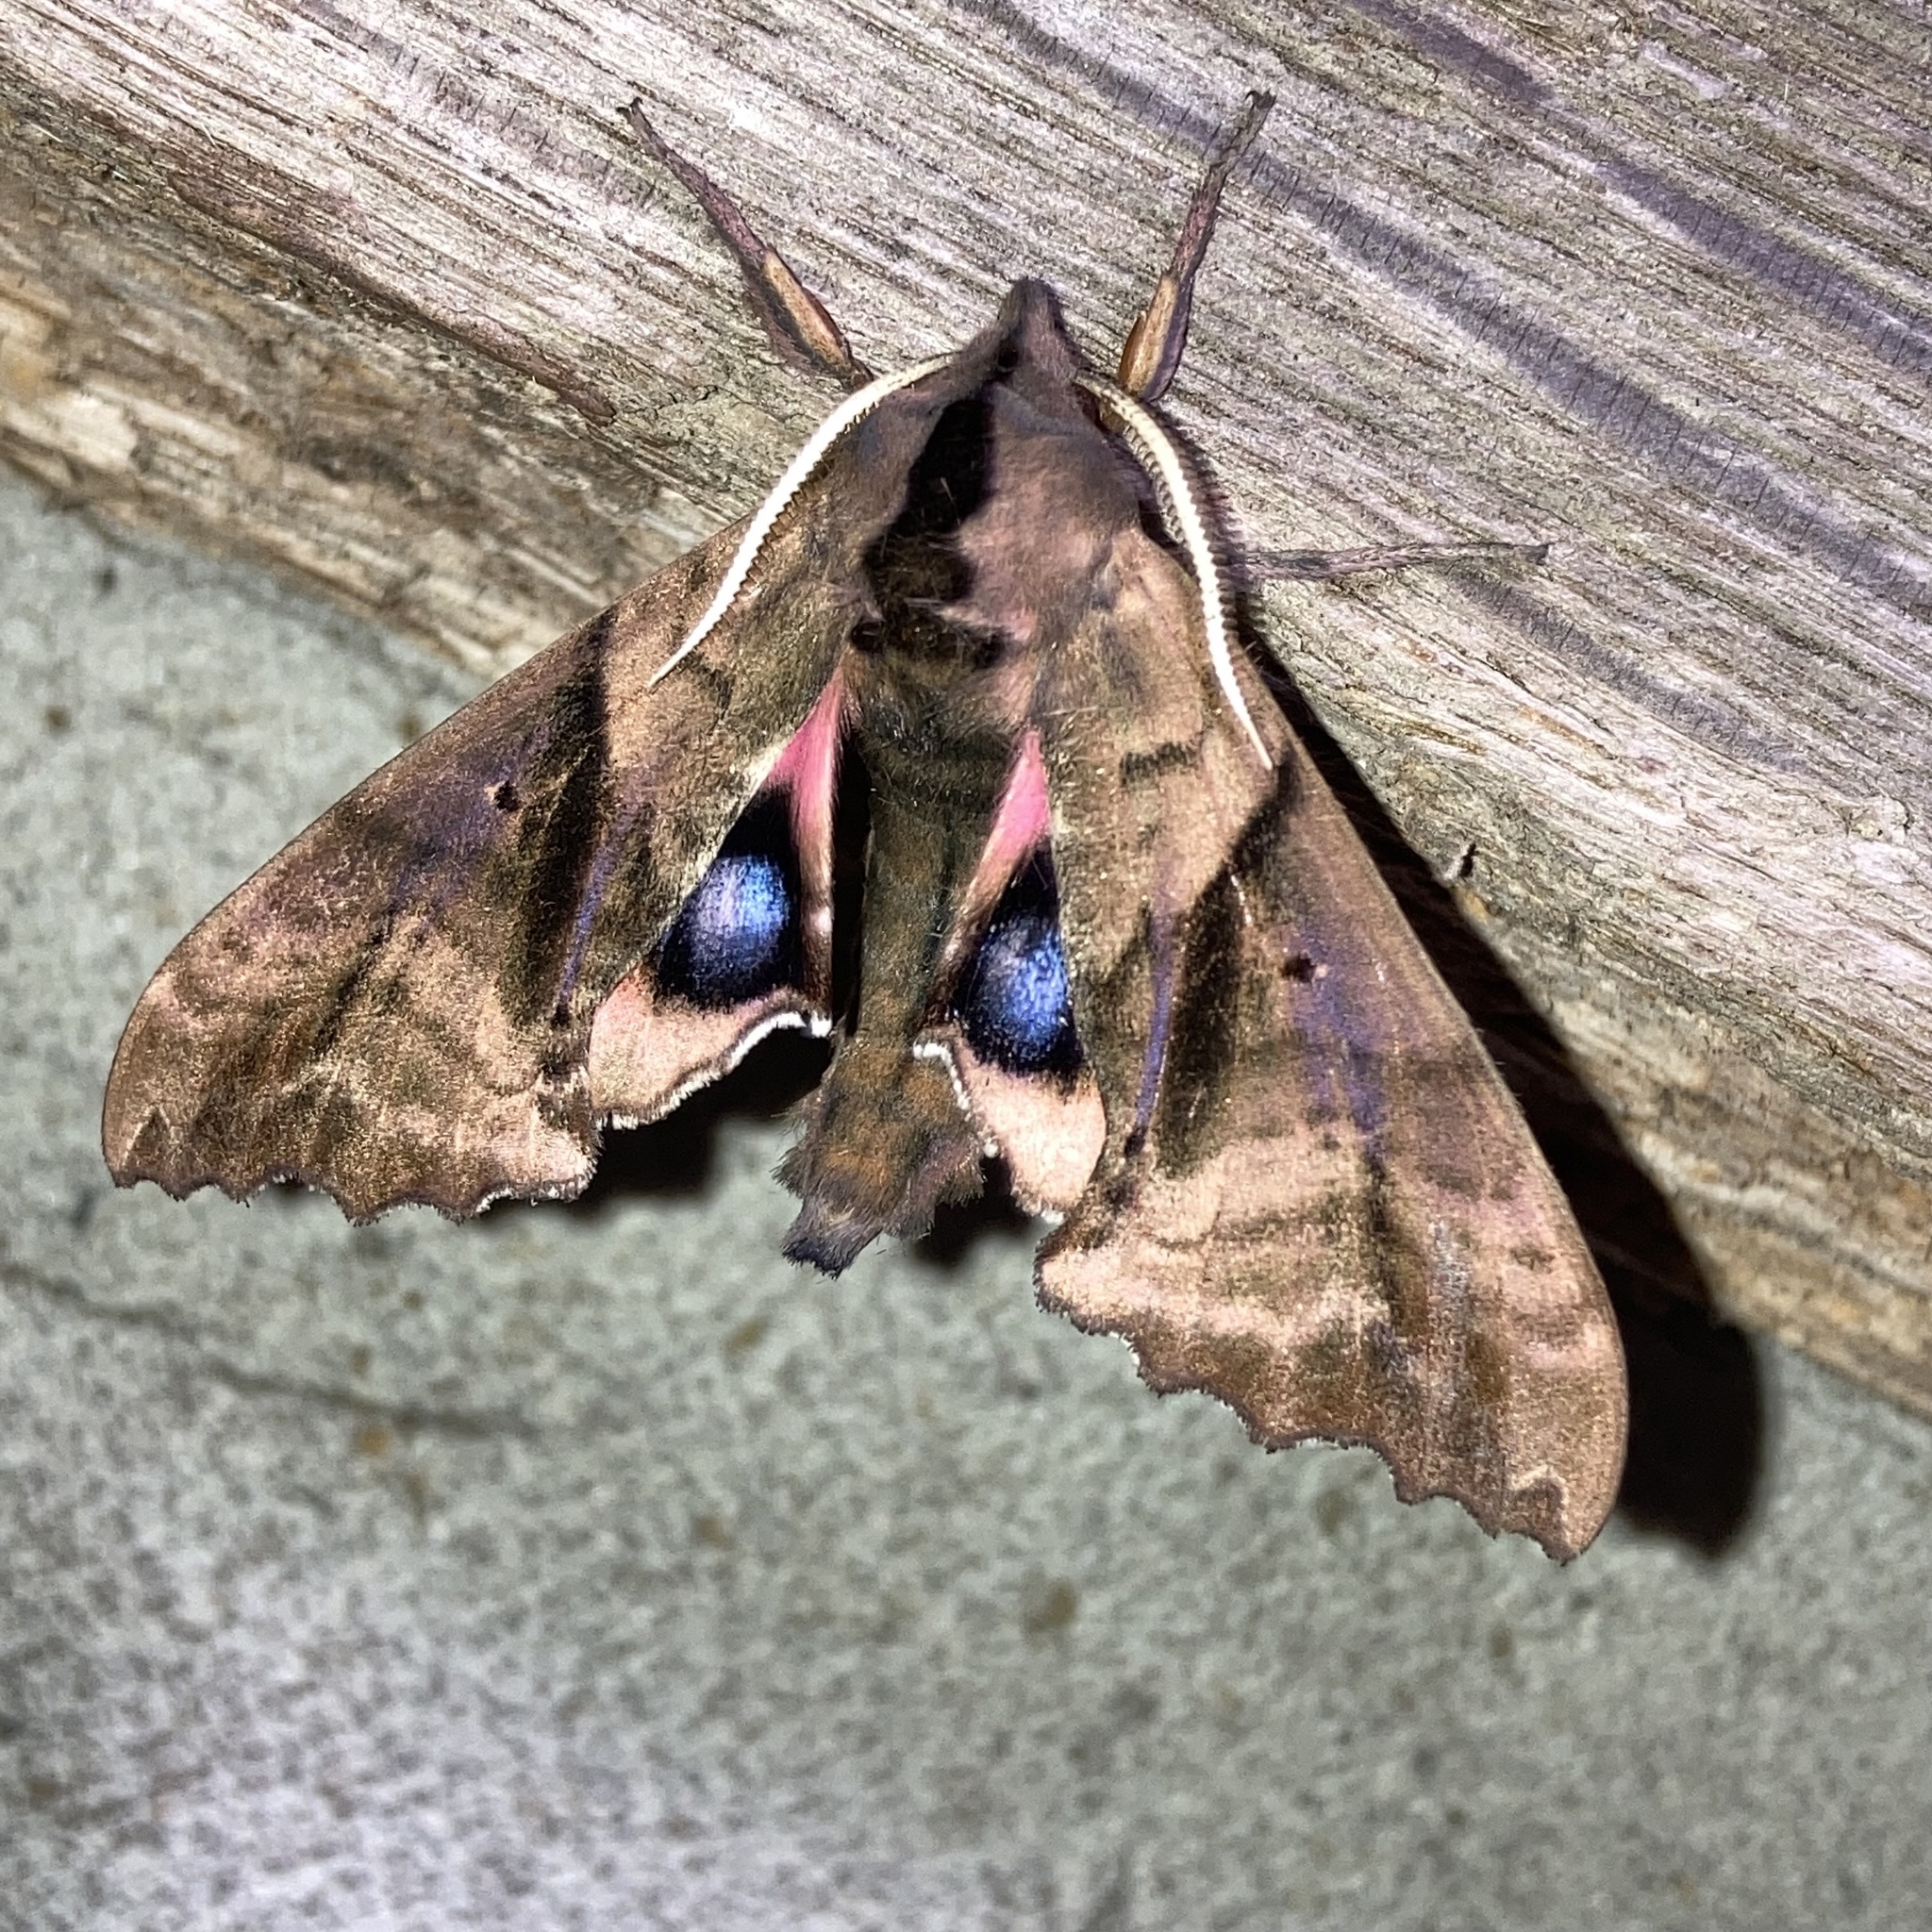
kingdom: Animalia
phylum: Arthropoda
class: Insecta
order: Lepidoptera
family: Sphingidae
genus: Paonias
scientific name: Paonias excaecata
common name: Blind-eyed sphinx
